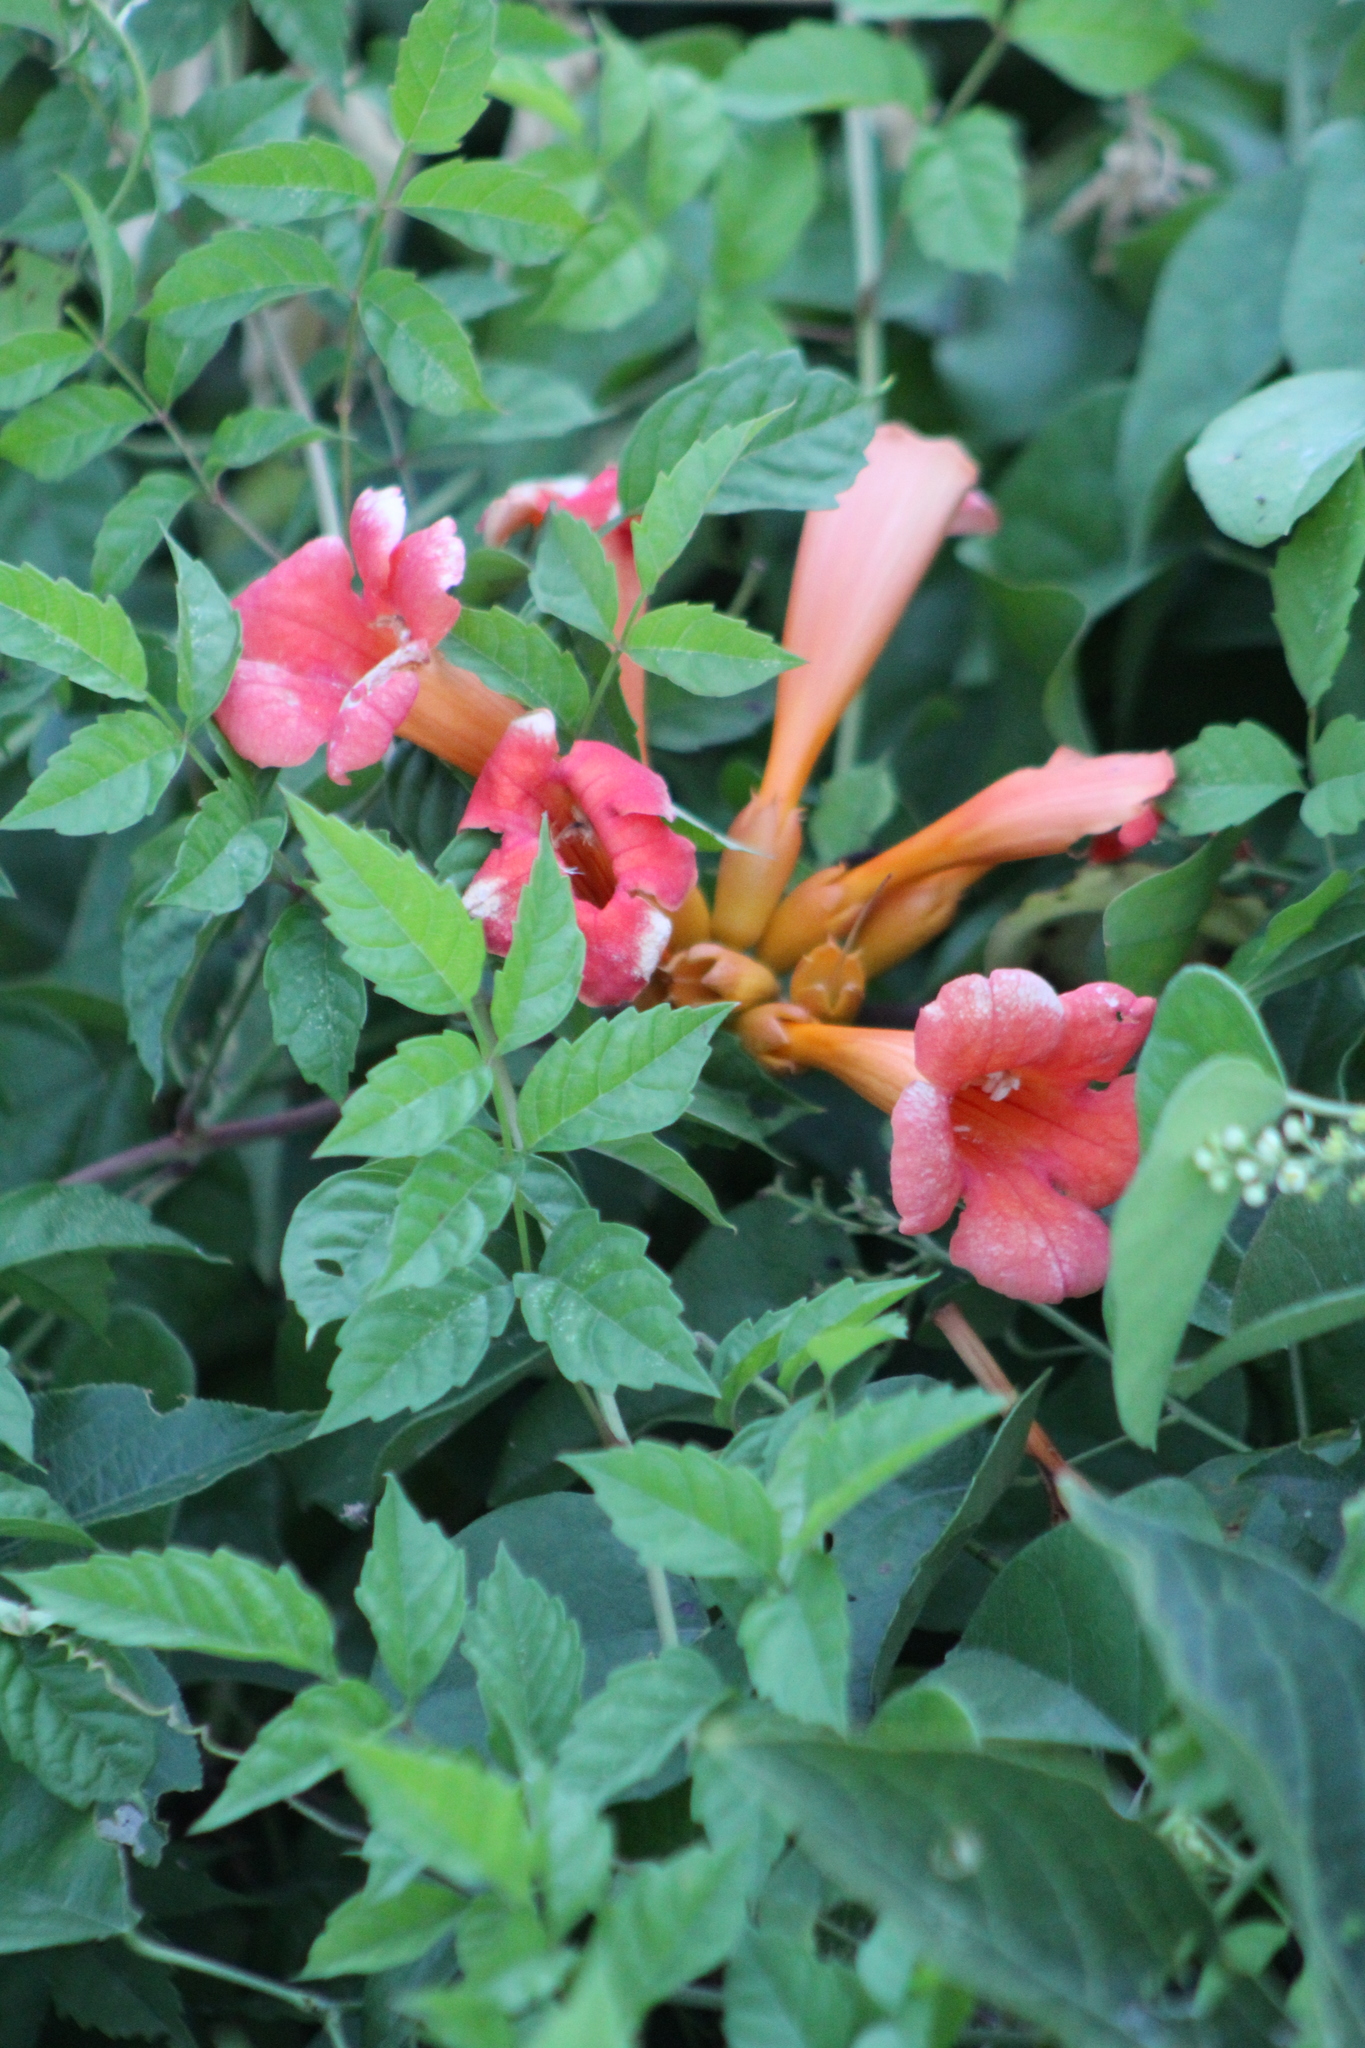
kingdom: Plantae
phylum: Tracheophyta
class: Magnoliopsida
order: Lamiales
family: Bignoniaceae
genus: Campsis
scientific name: Campsis radicans
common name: Trumpet-creeper
